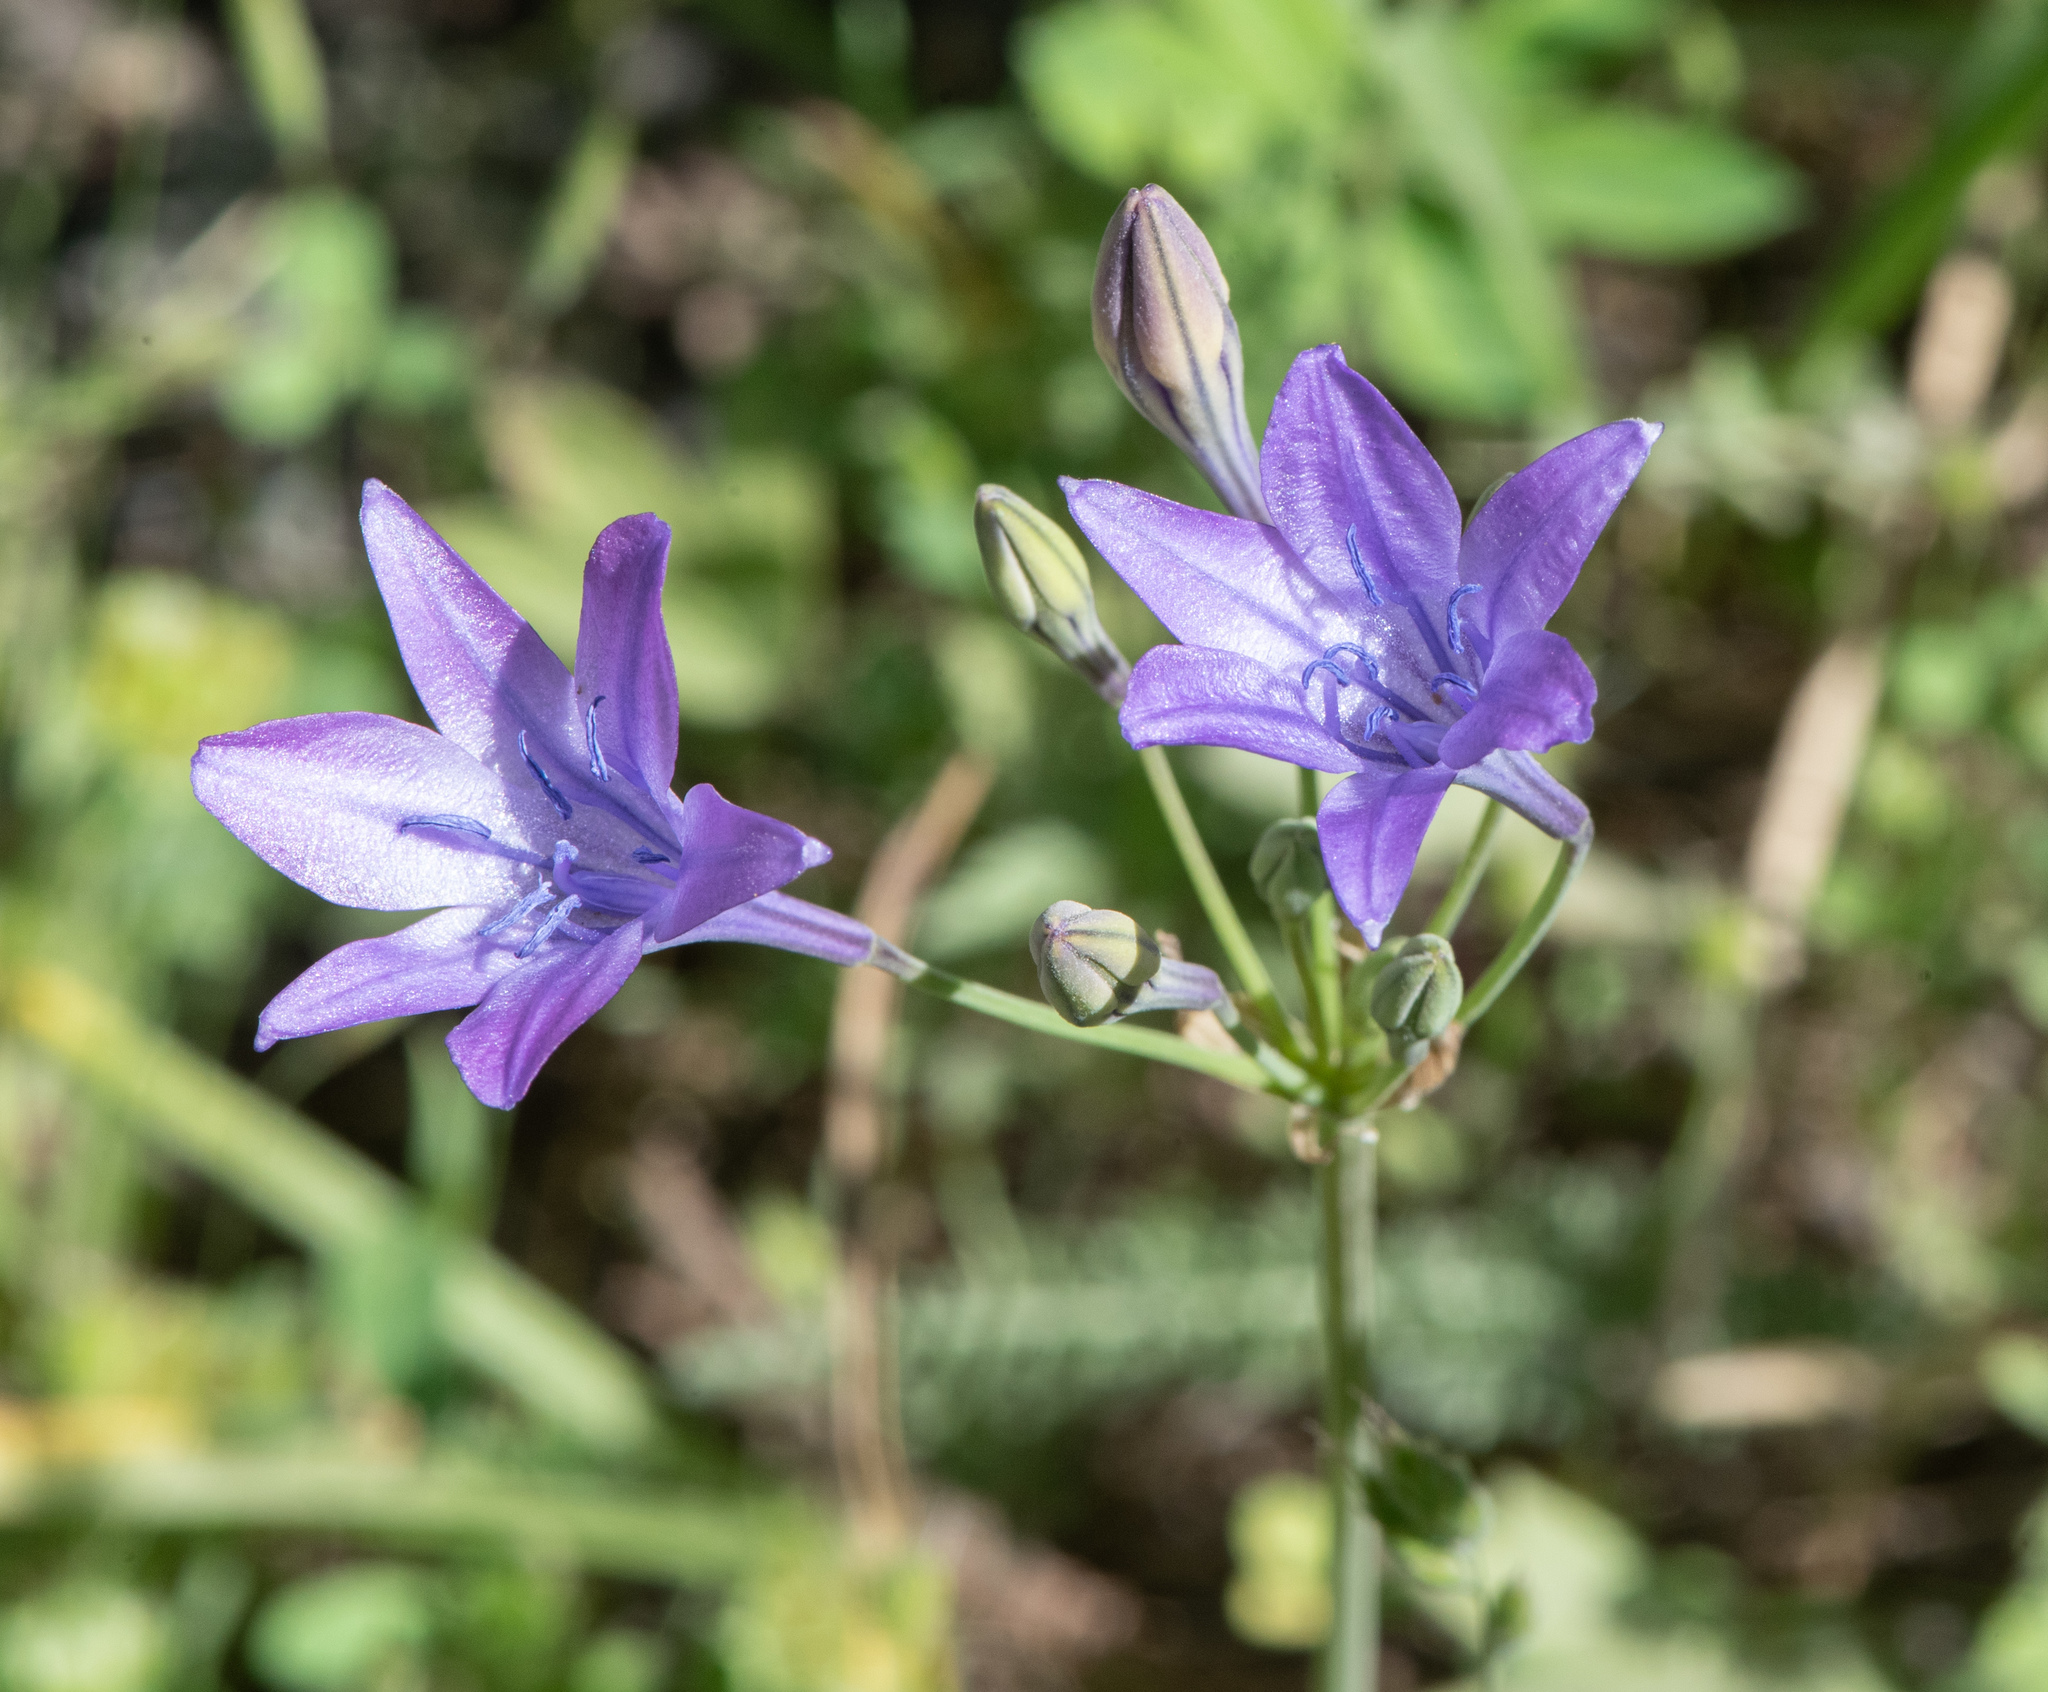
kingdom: Plantae
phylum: Tracheophyta
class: Liliopsida
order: Asparagales
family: Asparagaceae
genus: Triteleia
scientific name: Triteleia laxa
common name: Triplet-lily
